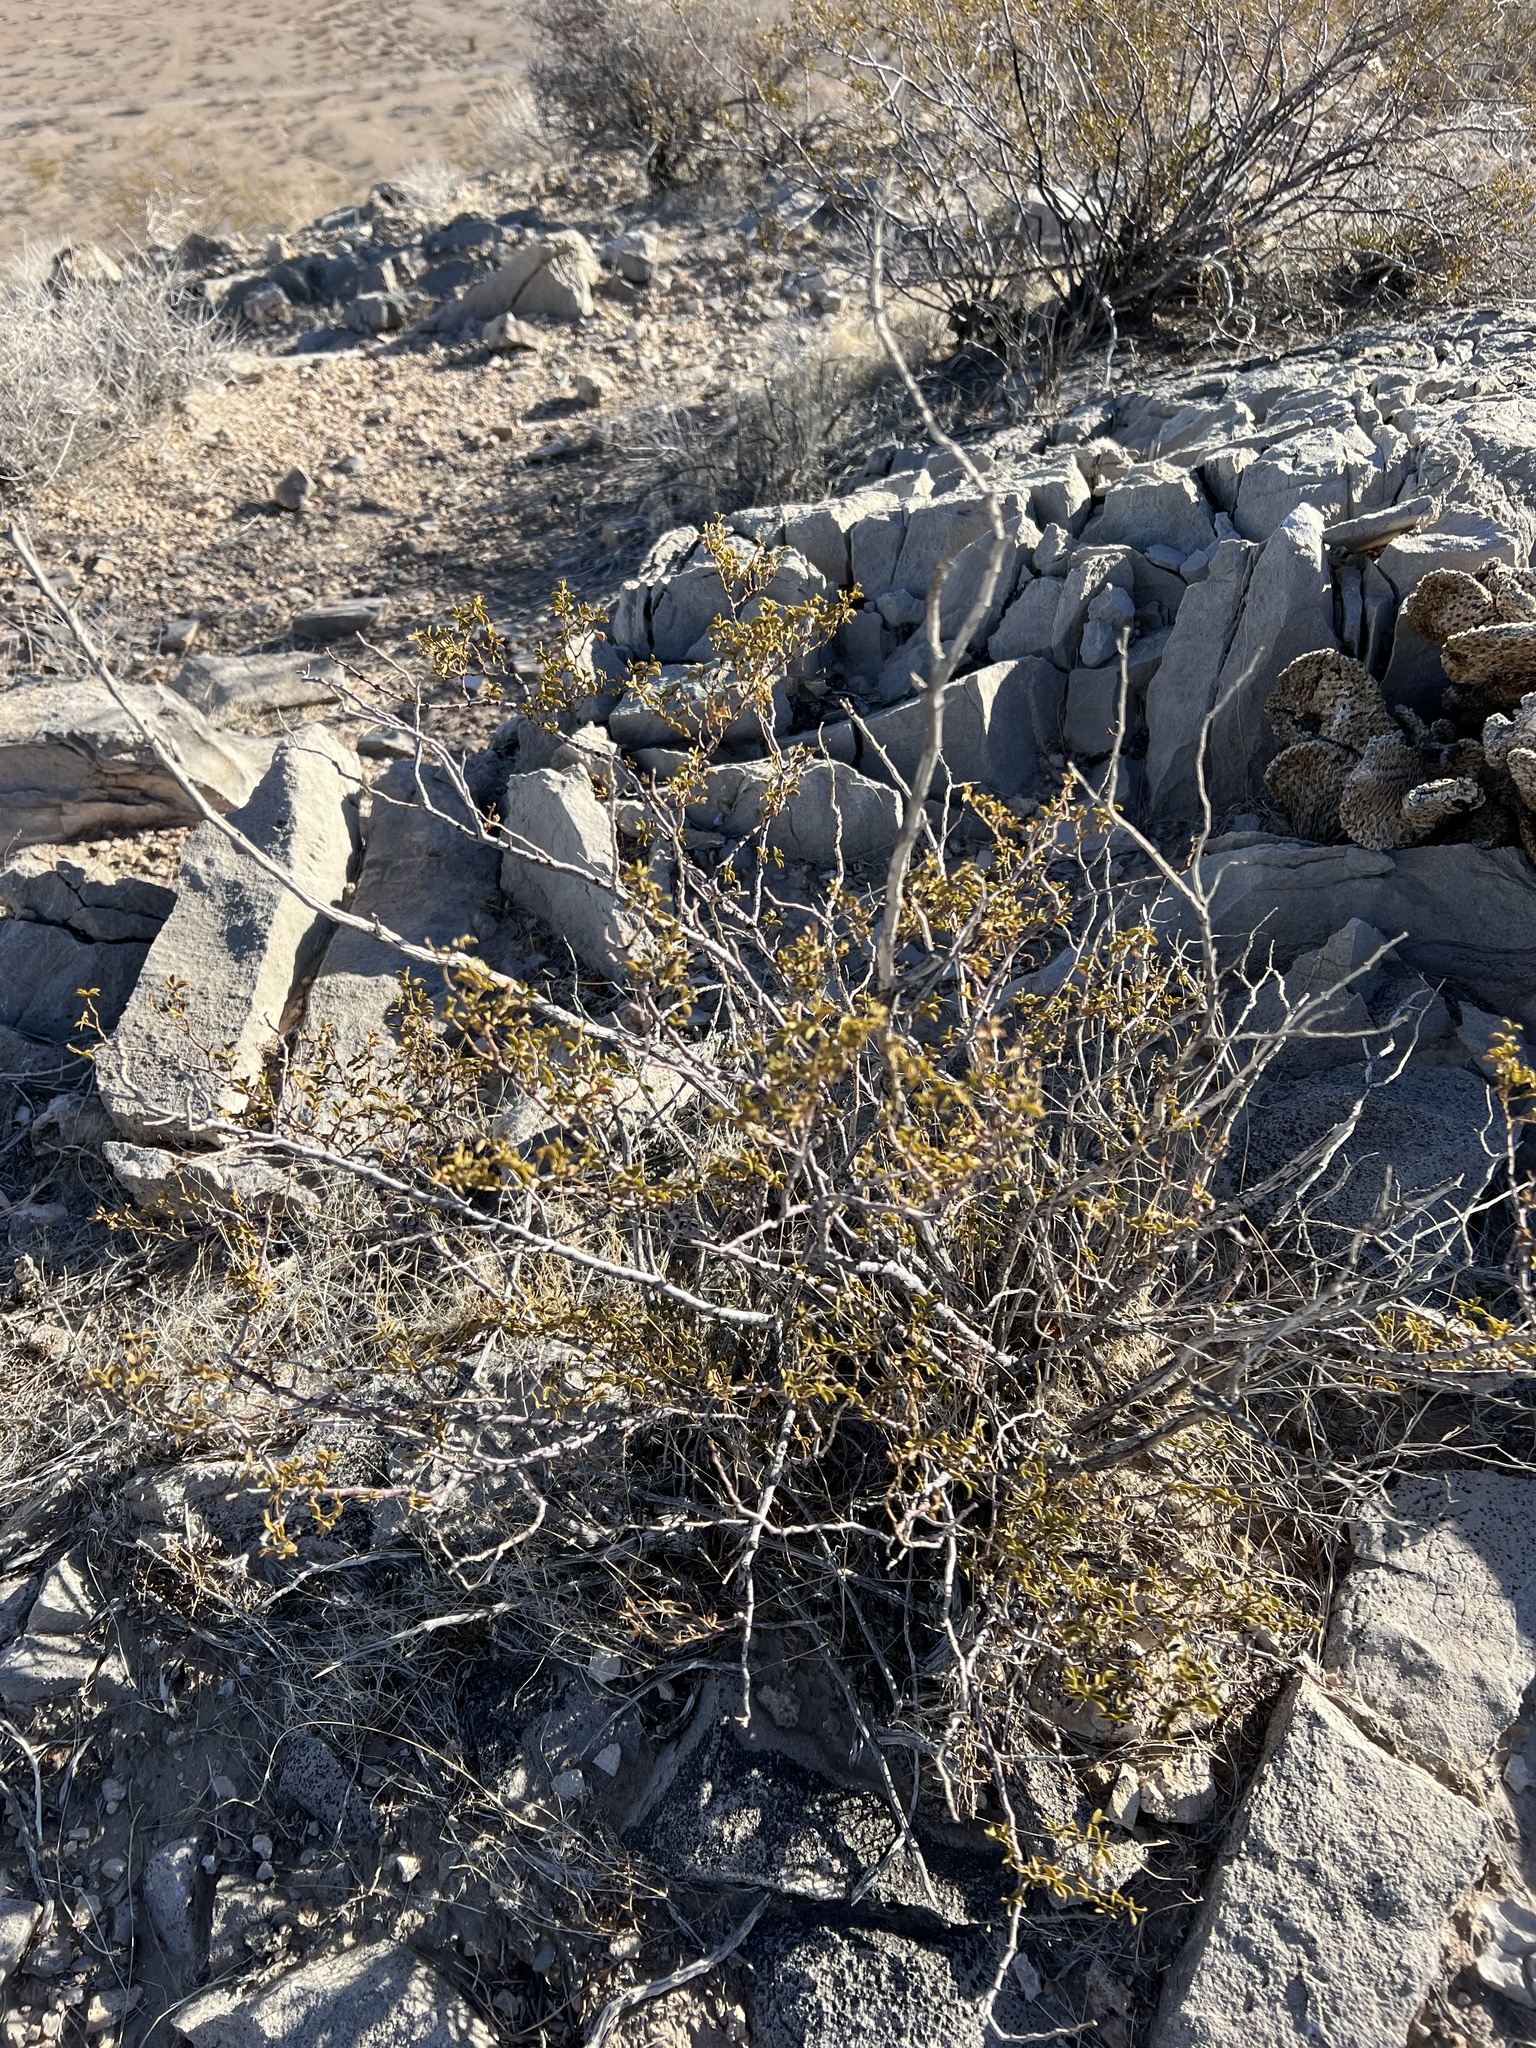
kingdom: Plantae
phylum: Tracheophyta
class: Magnoliopsida
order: Zygophyllales
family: Zygophyllaceae
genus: Larrea
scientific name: Larrea tridentata
